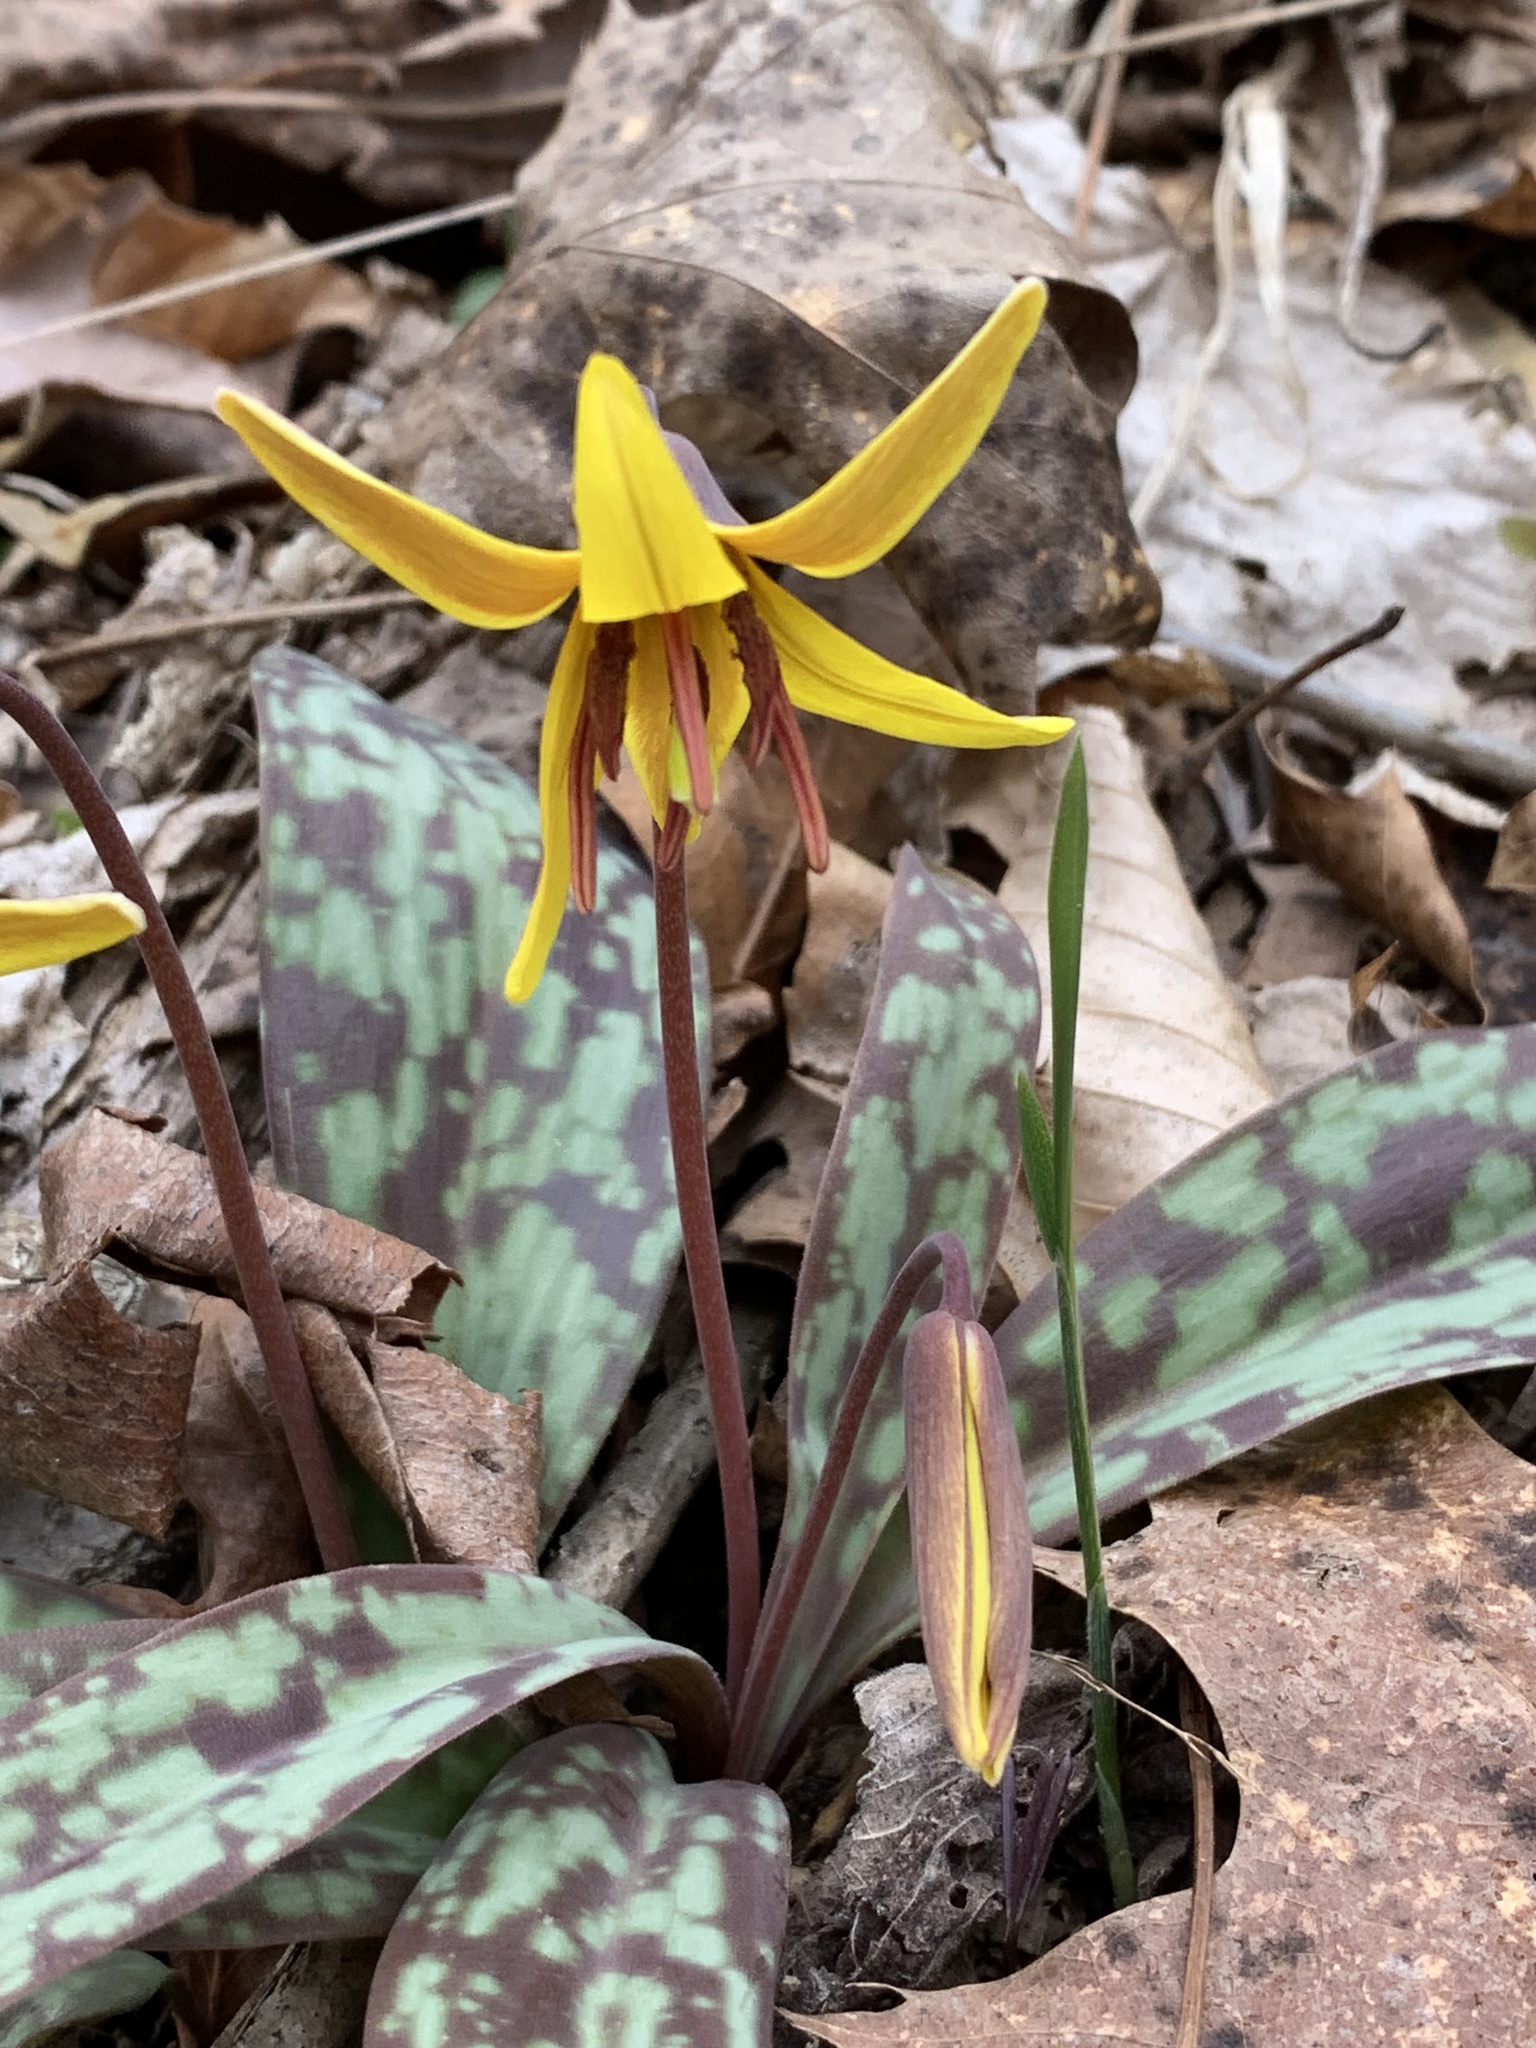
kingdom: Plantae
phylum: Tracheophyta
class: Liliopsida
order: Liliales
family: Liliaceae
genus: Erythronium
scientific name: Erythronium americanum
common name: Yellow adder's-tongue
